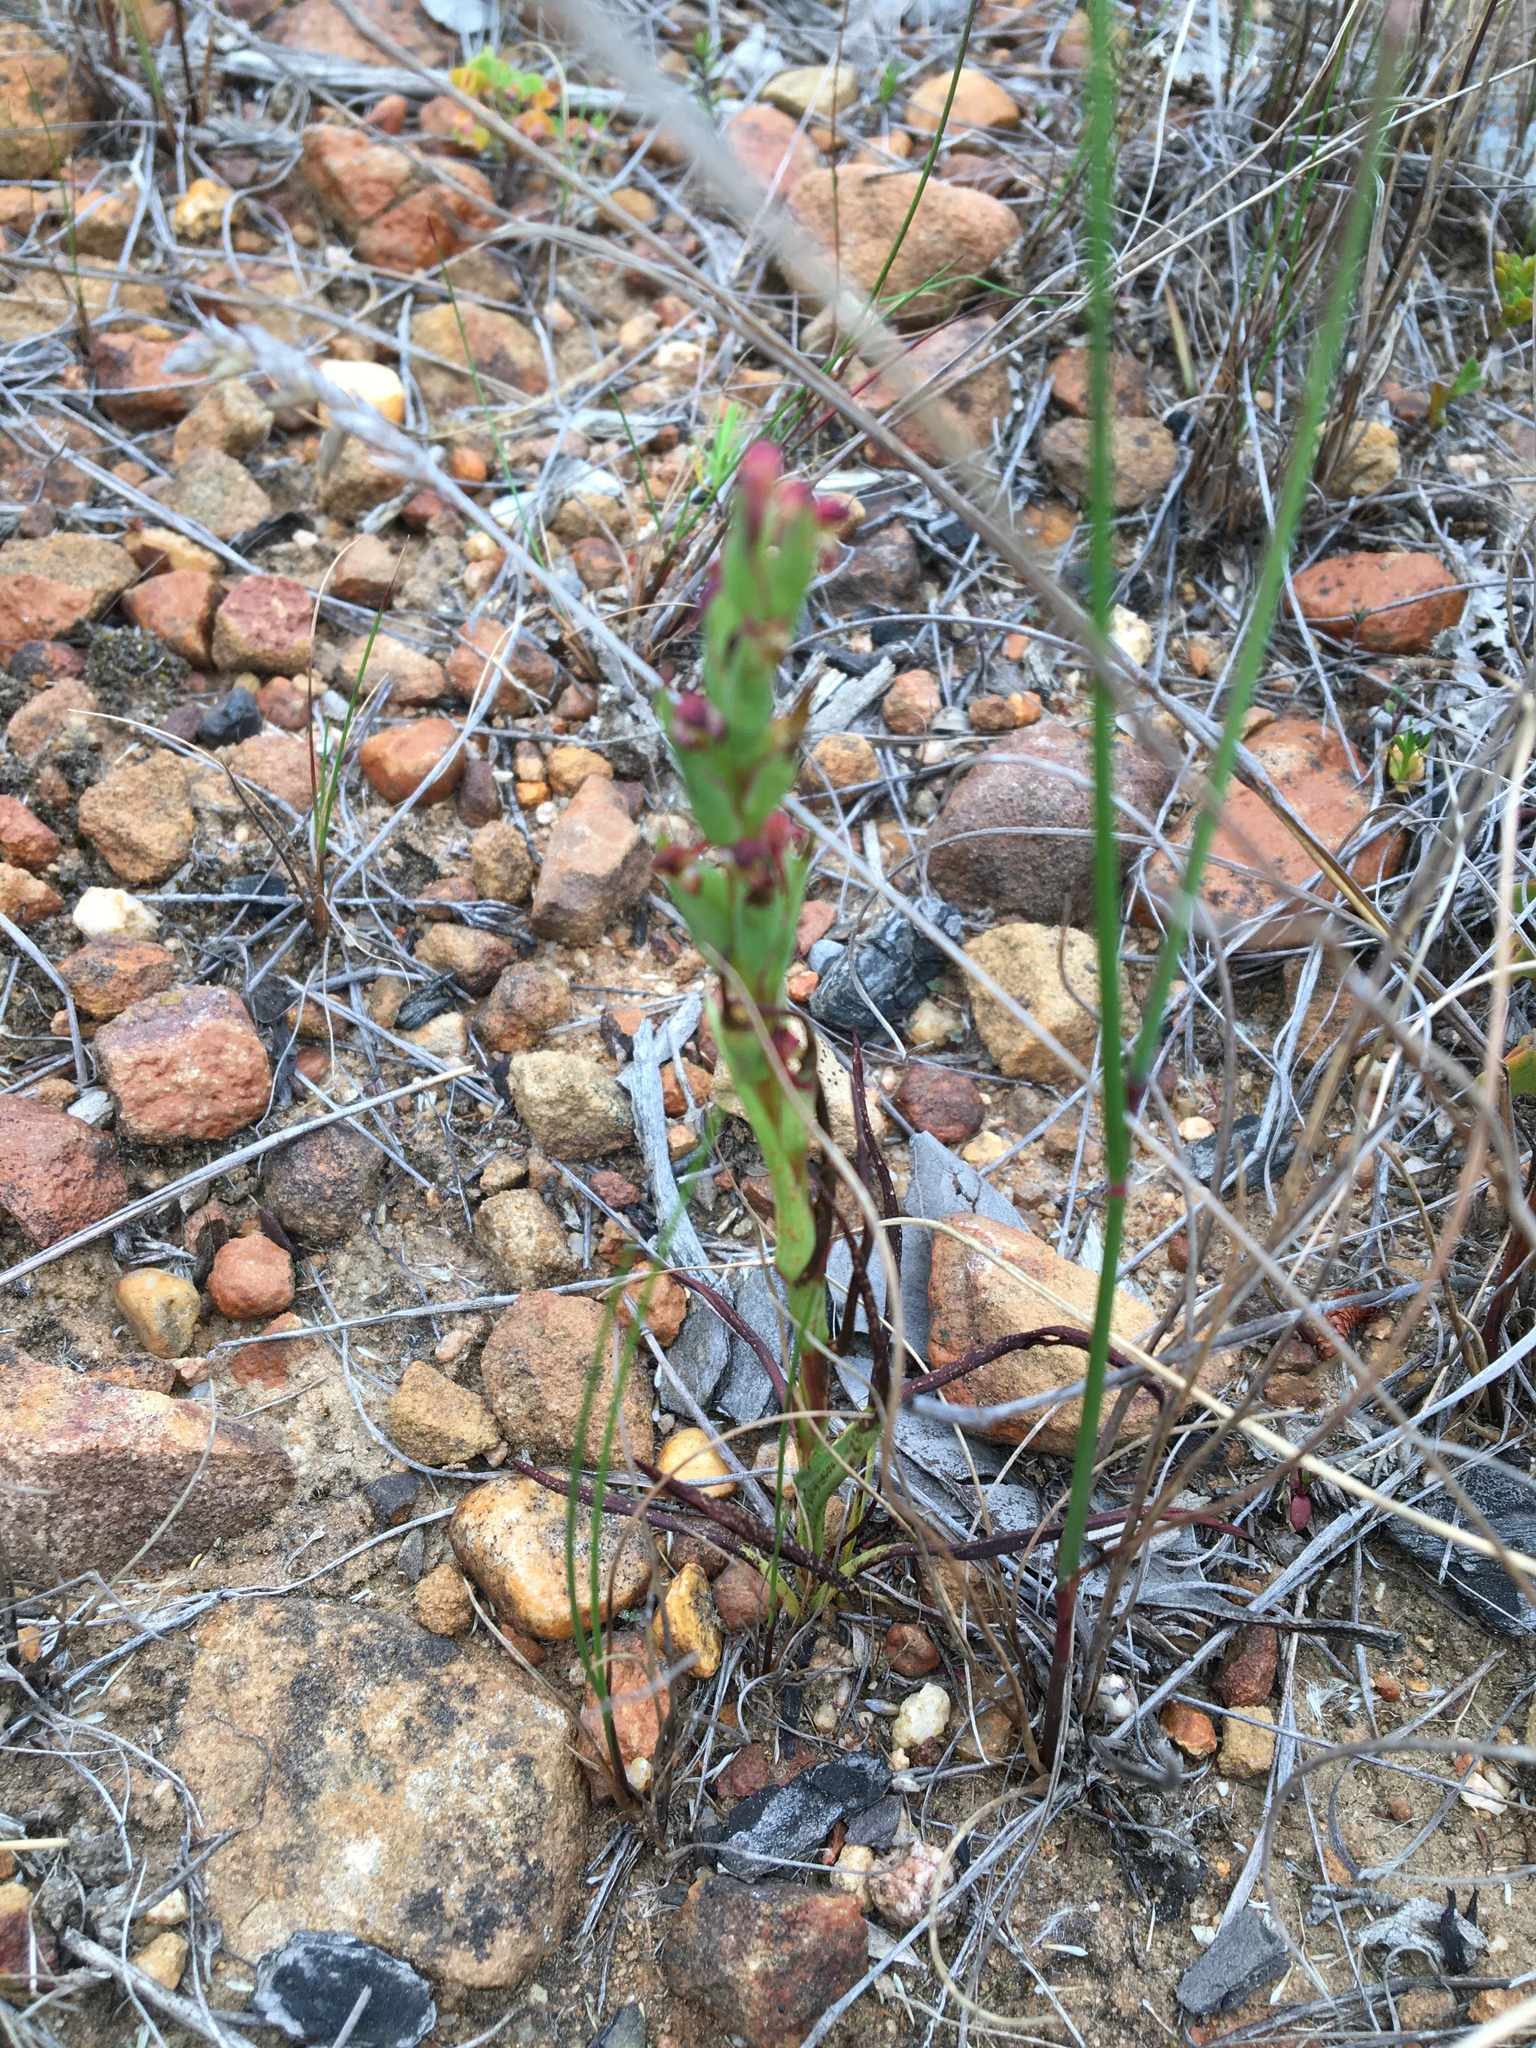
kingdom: Plantae
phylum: Tracheophyta
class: Liliopsida
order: Asparagales
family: Orchidaceae
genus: Disa
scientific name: Disa bracteata
